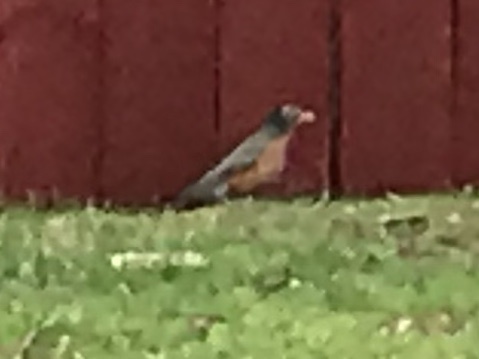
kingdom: Animalia
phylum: Chordata
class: Aves
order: Passeriformes
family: Turdidae
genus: Turdus
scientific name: Turdus migratorius
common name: American robin
